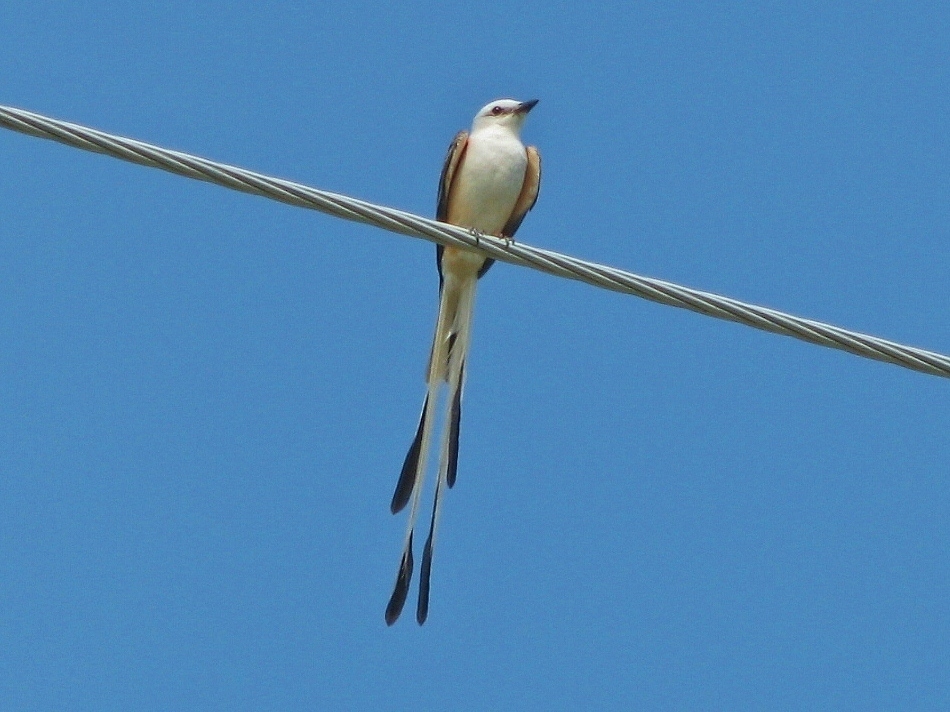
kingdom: Animalia
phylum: Chordata
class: Aves
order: Passeriformes
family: Tyrannidae
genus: Tyrannus
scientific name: Tyrannus forficatus
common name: Scissor-tailed flycatcher
